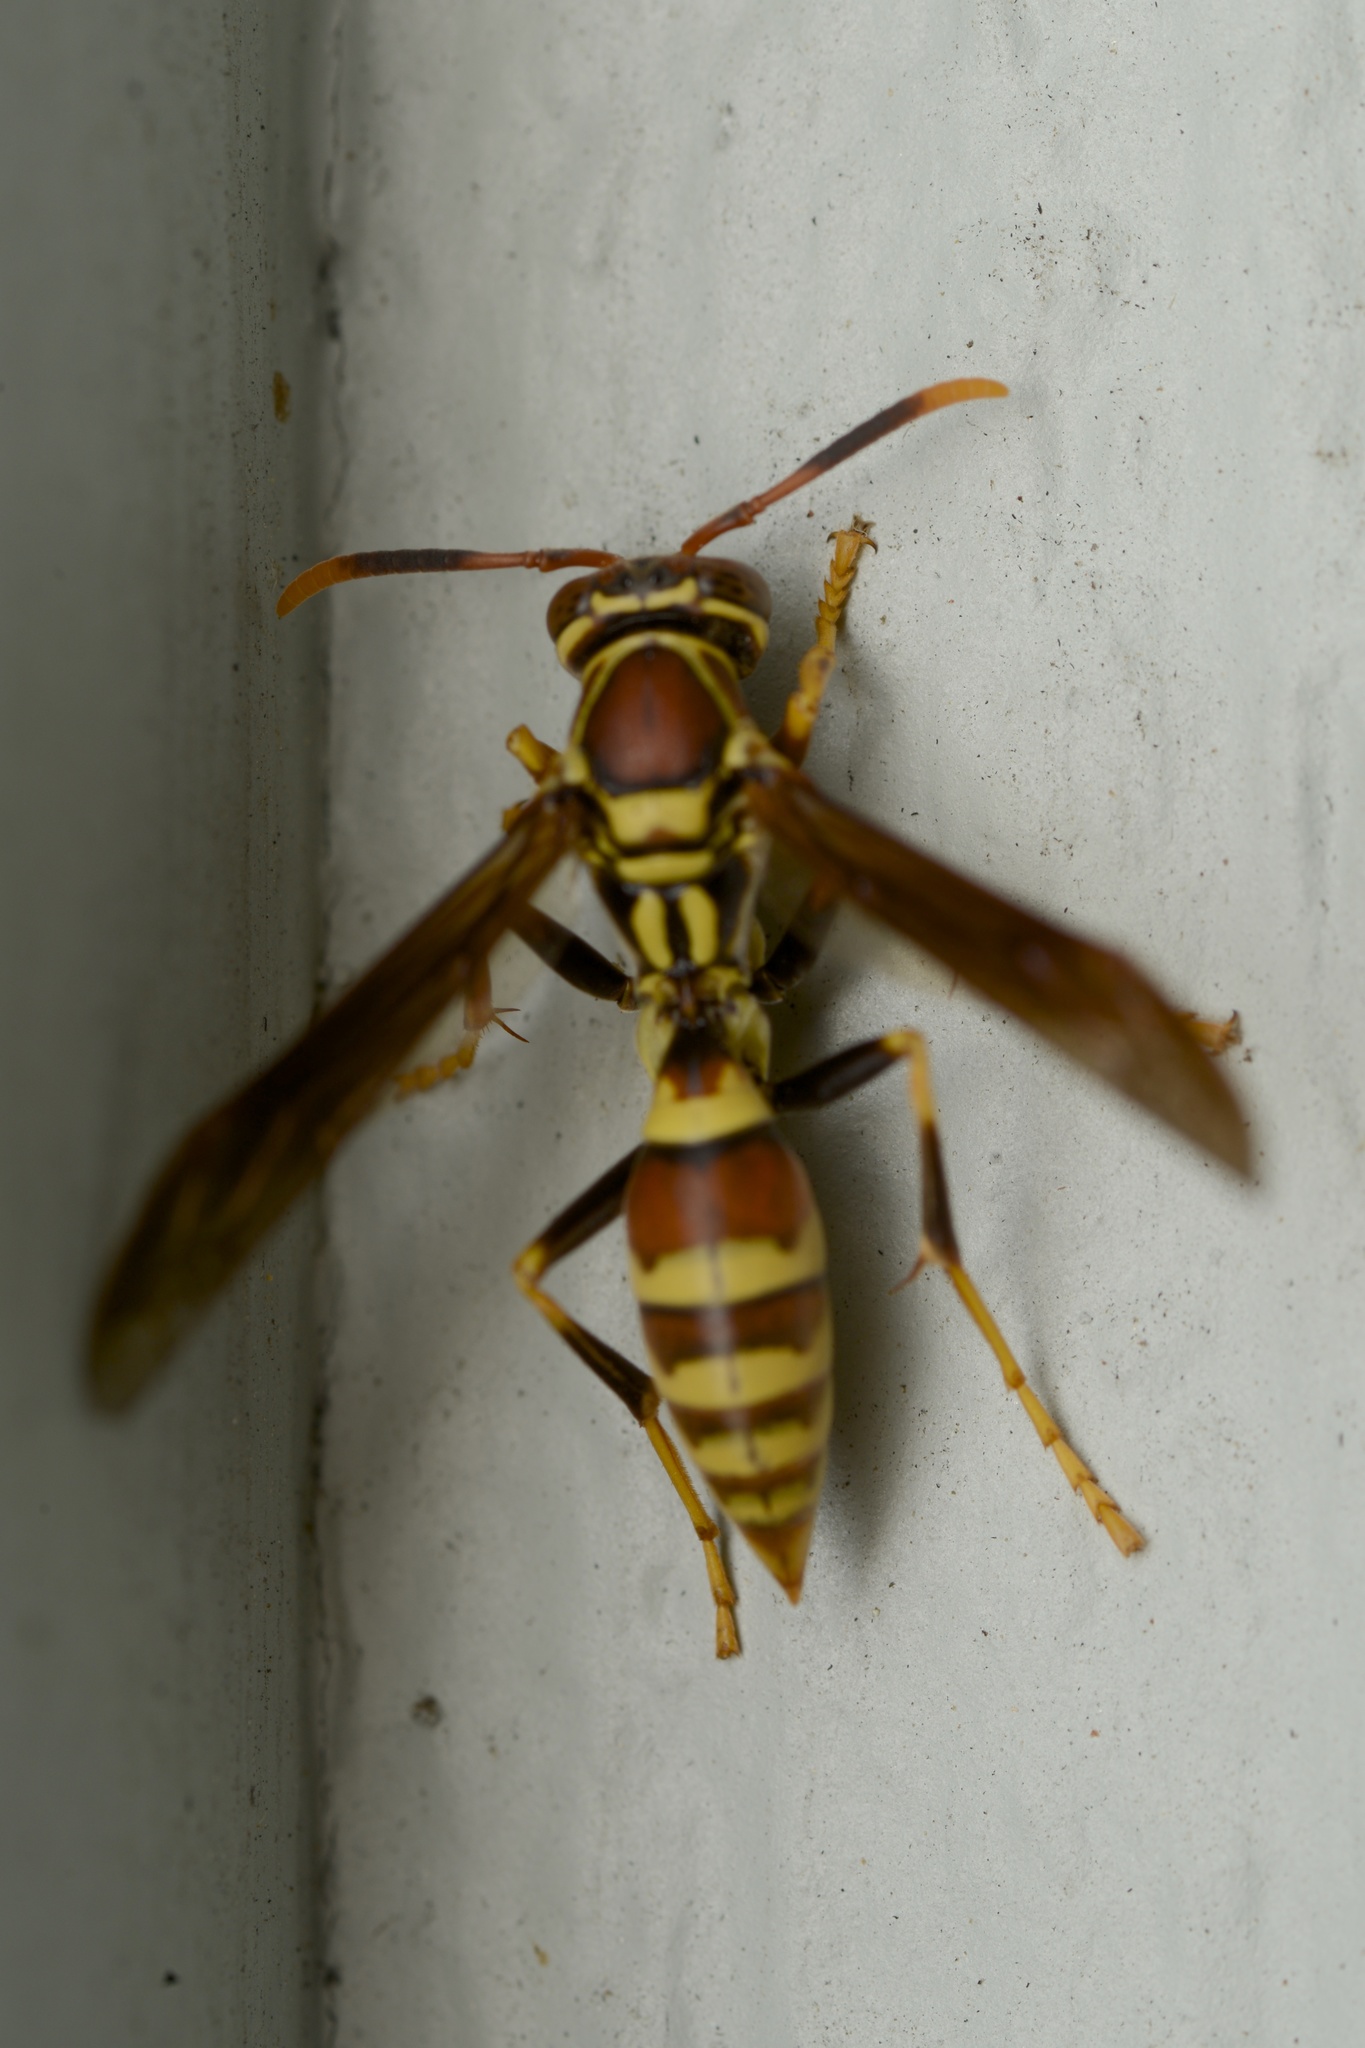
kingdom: Animalia
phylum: Arthropoda
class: Insecta
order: Hymenoptera
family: Eumenidae
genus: Polistes
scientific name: Polistes exclamans
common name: Paper wasp
